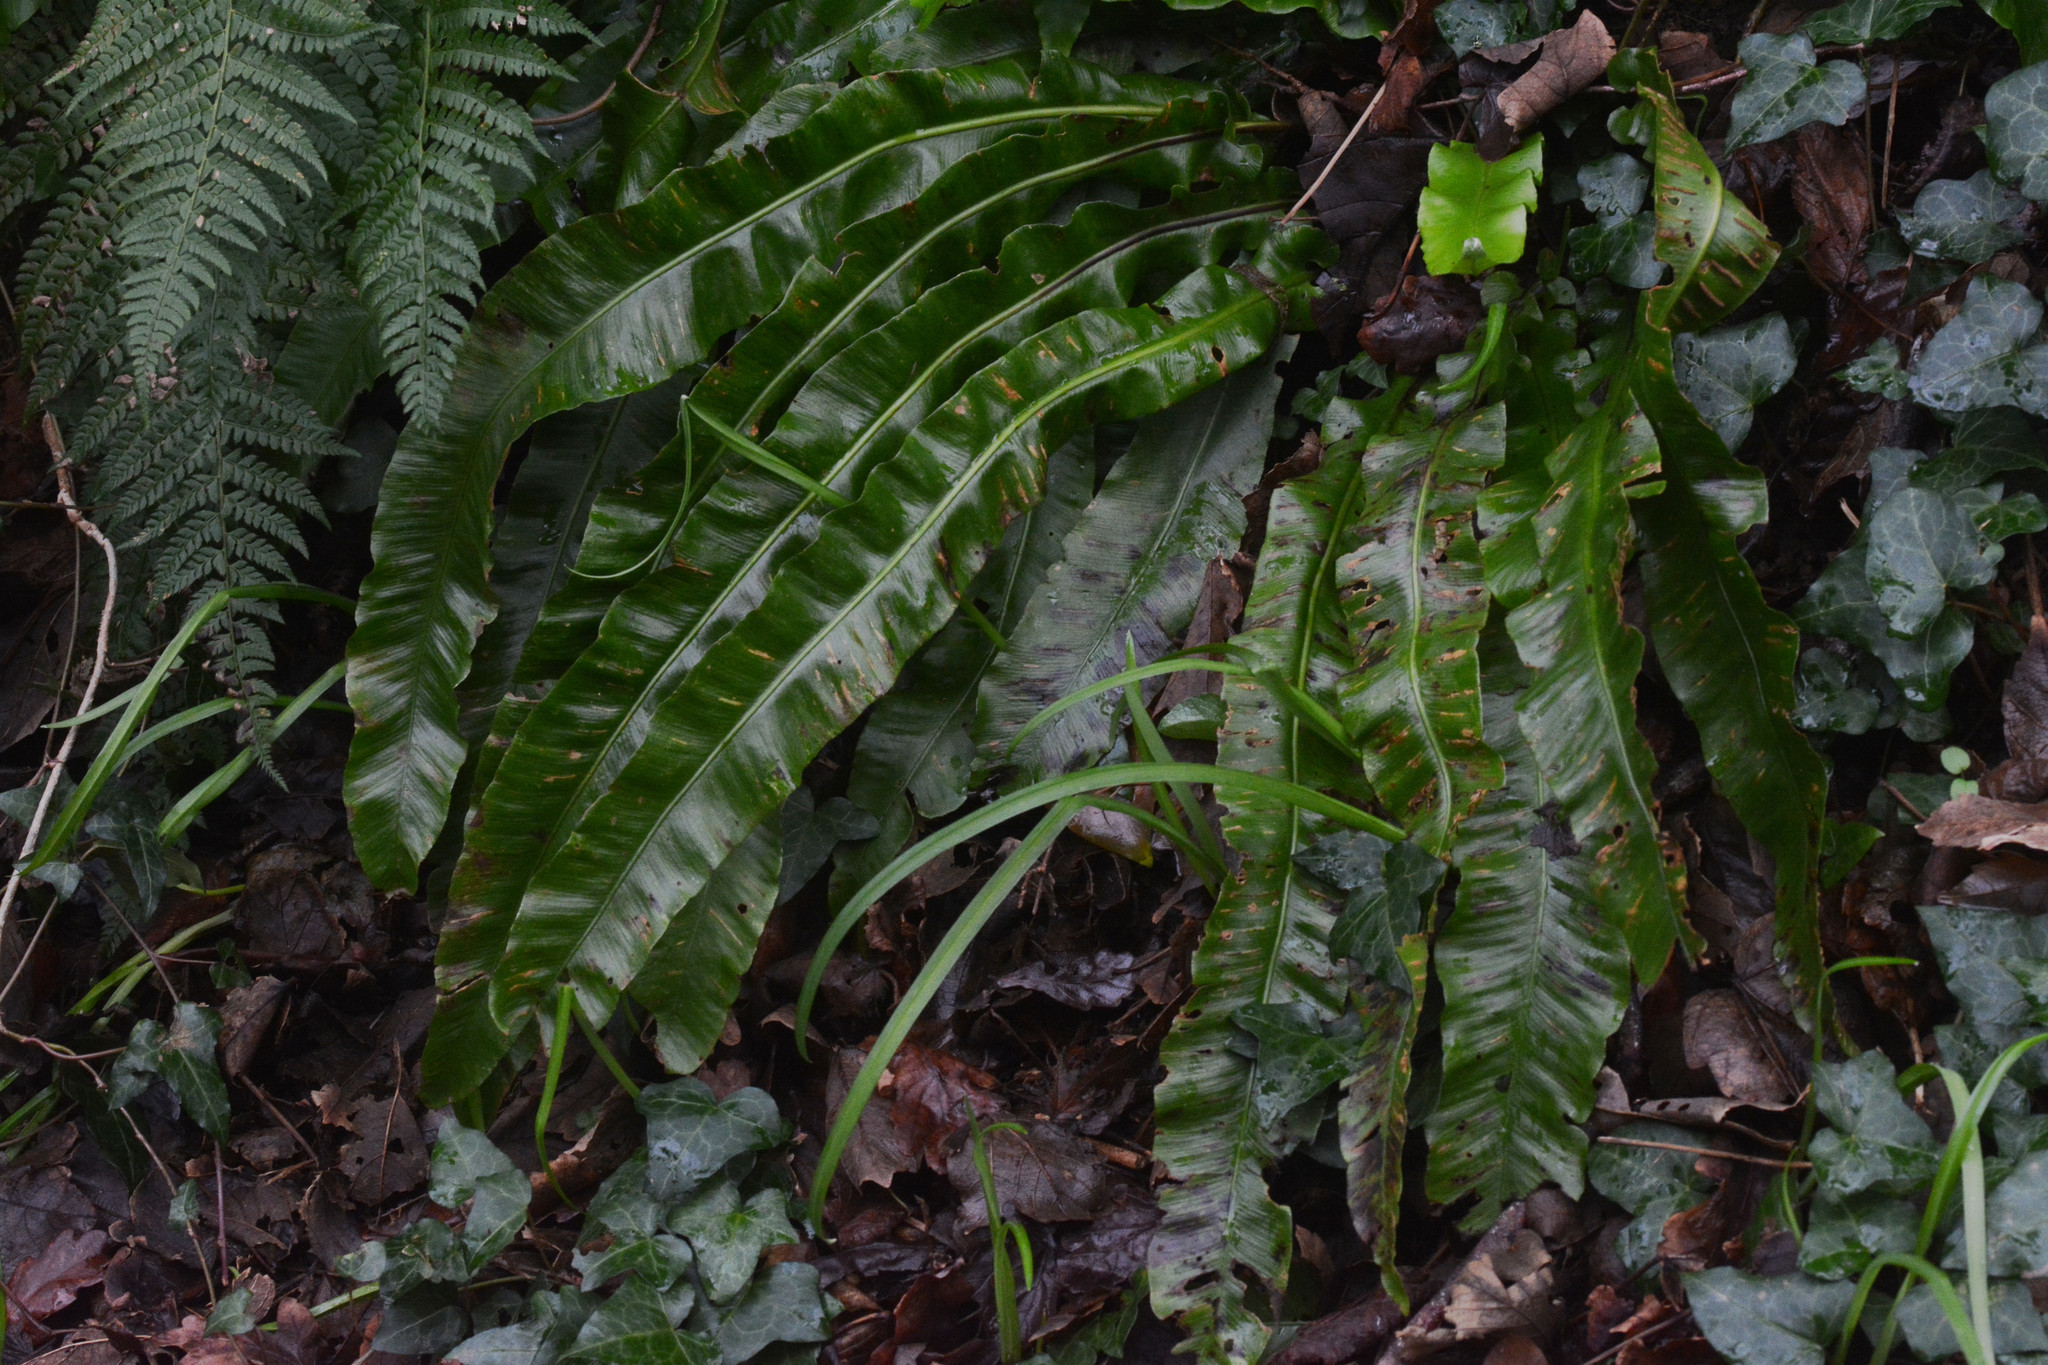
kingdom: Plantae
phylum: Tracheophyta
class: Polypodiopsida
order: Polypodiales
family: Aspleniaceae
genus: Asplenium
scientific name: Asplenium scolopendrium
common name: Hart's-tongue fern
